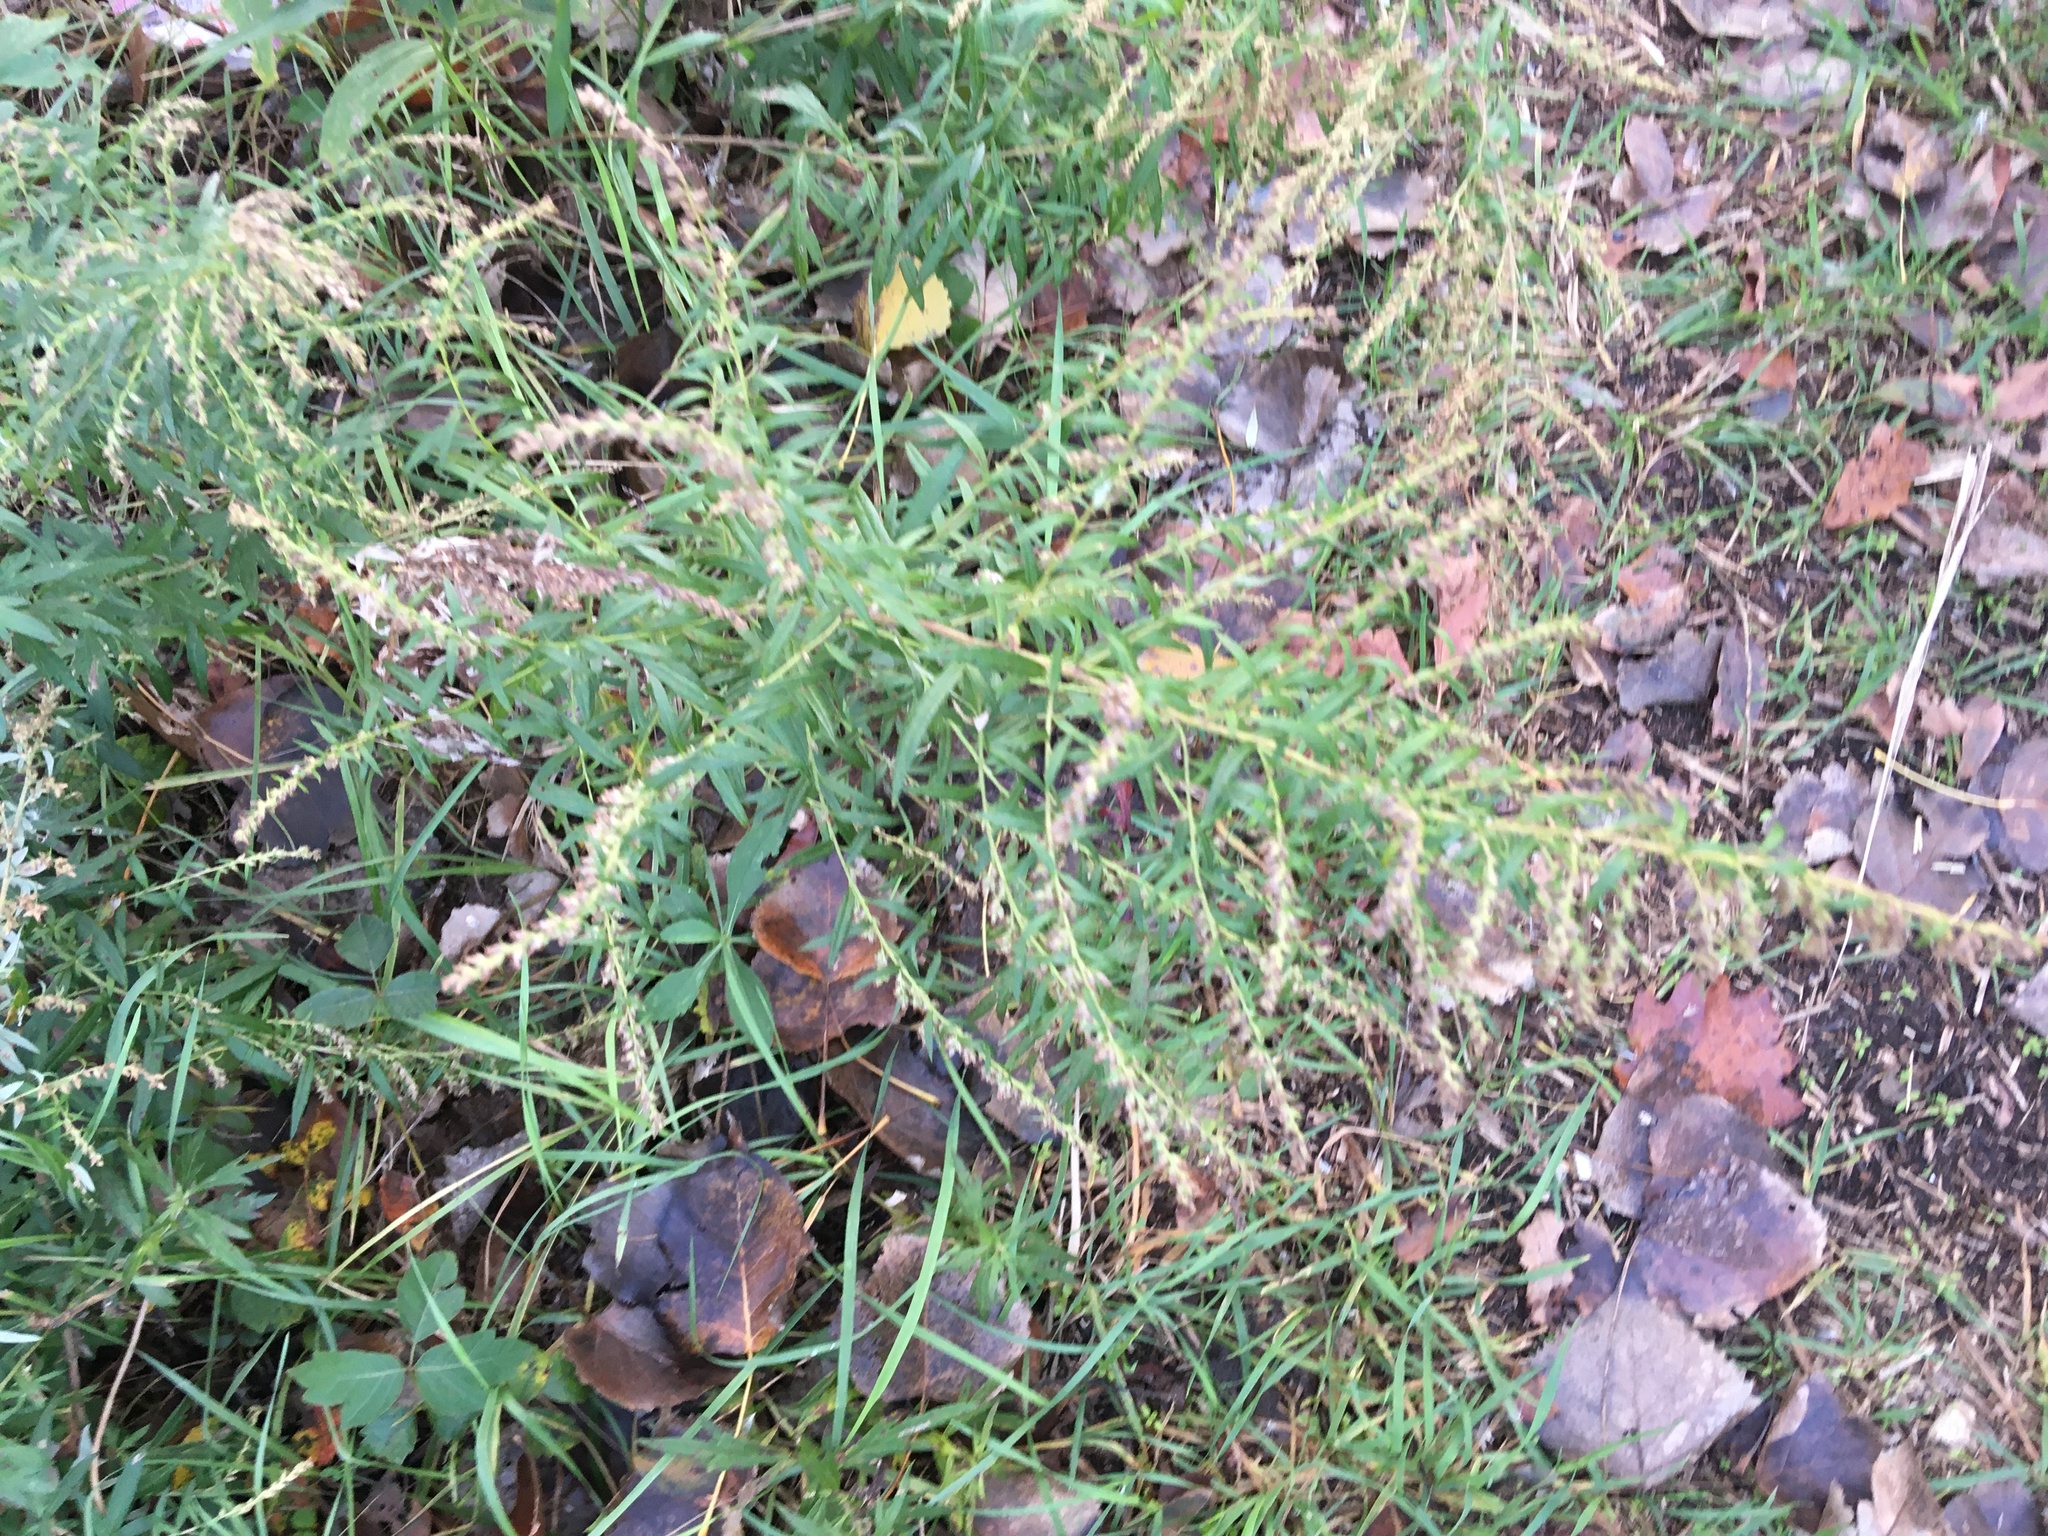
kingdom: Plantae
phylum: Tracheophyta
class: Magnoliopsida
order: Asterales
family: Asteraceae
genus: Artemisia
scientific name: Artemisia vulgaris
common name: Mugwort
